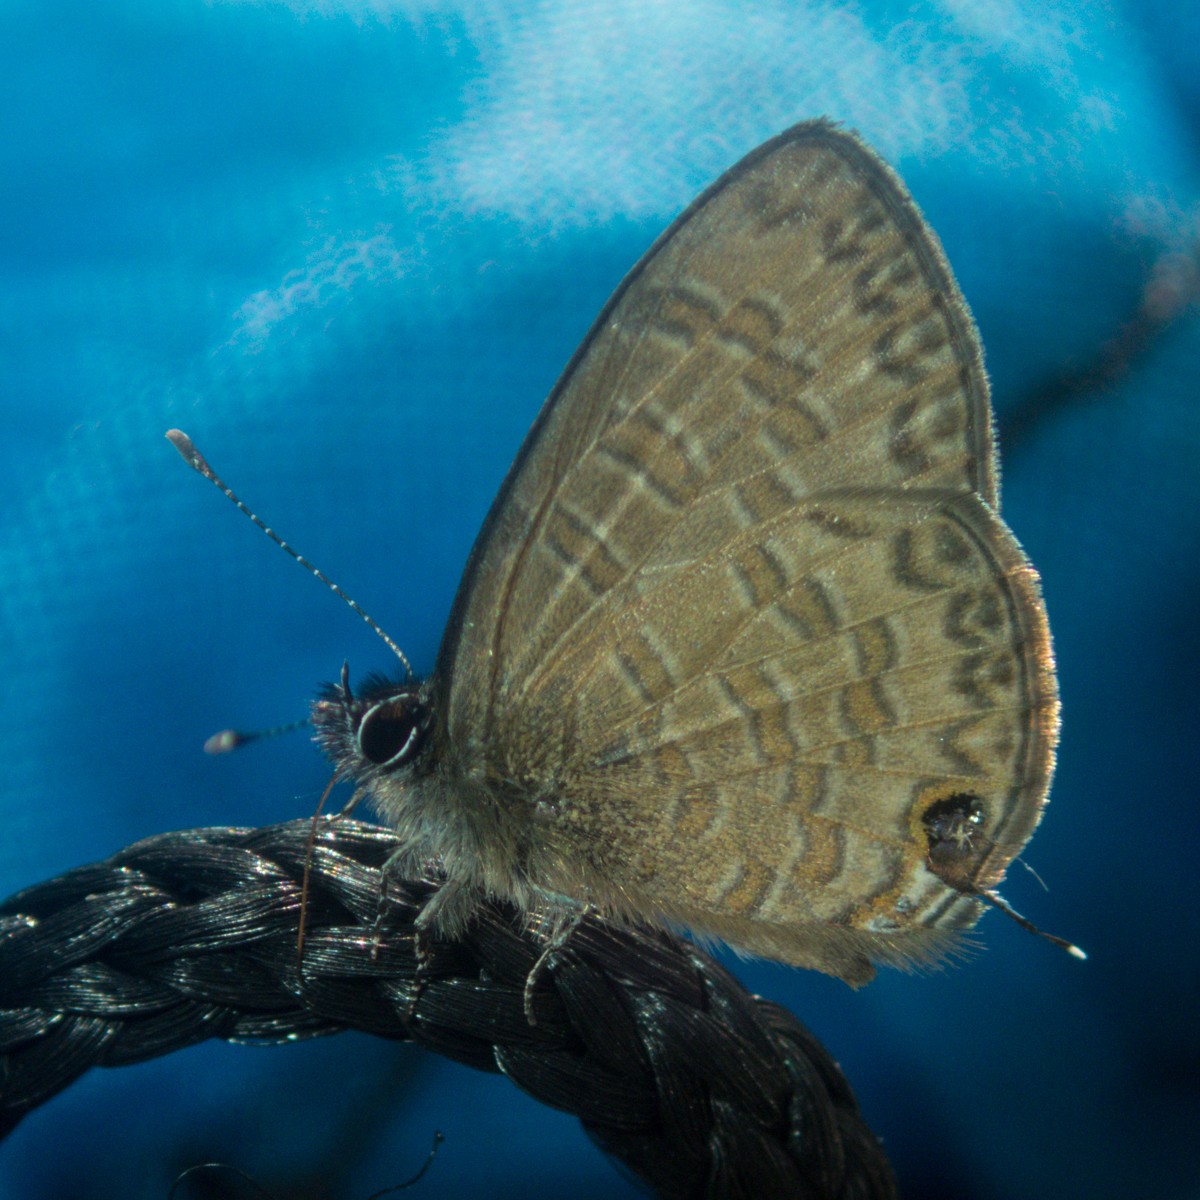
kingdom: Animalia
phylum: Arthropoda
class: Insecta
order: Lepidoptera
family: Lycaenidae
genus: Prosotas
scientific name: Prosotas nora
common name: Common line blue
